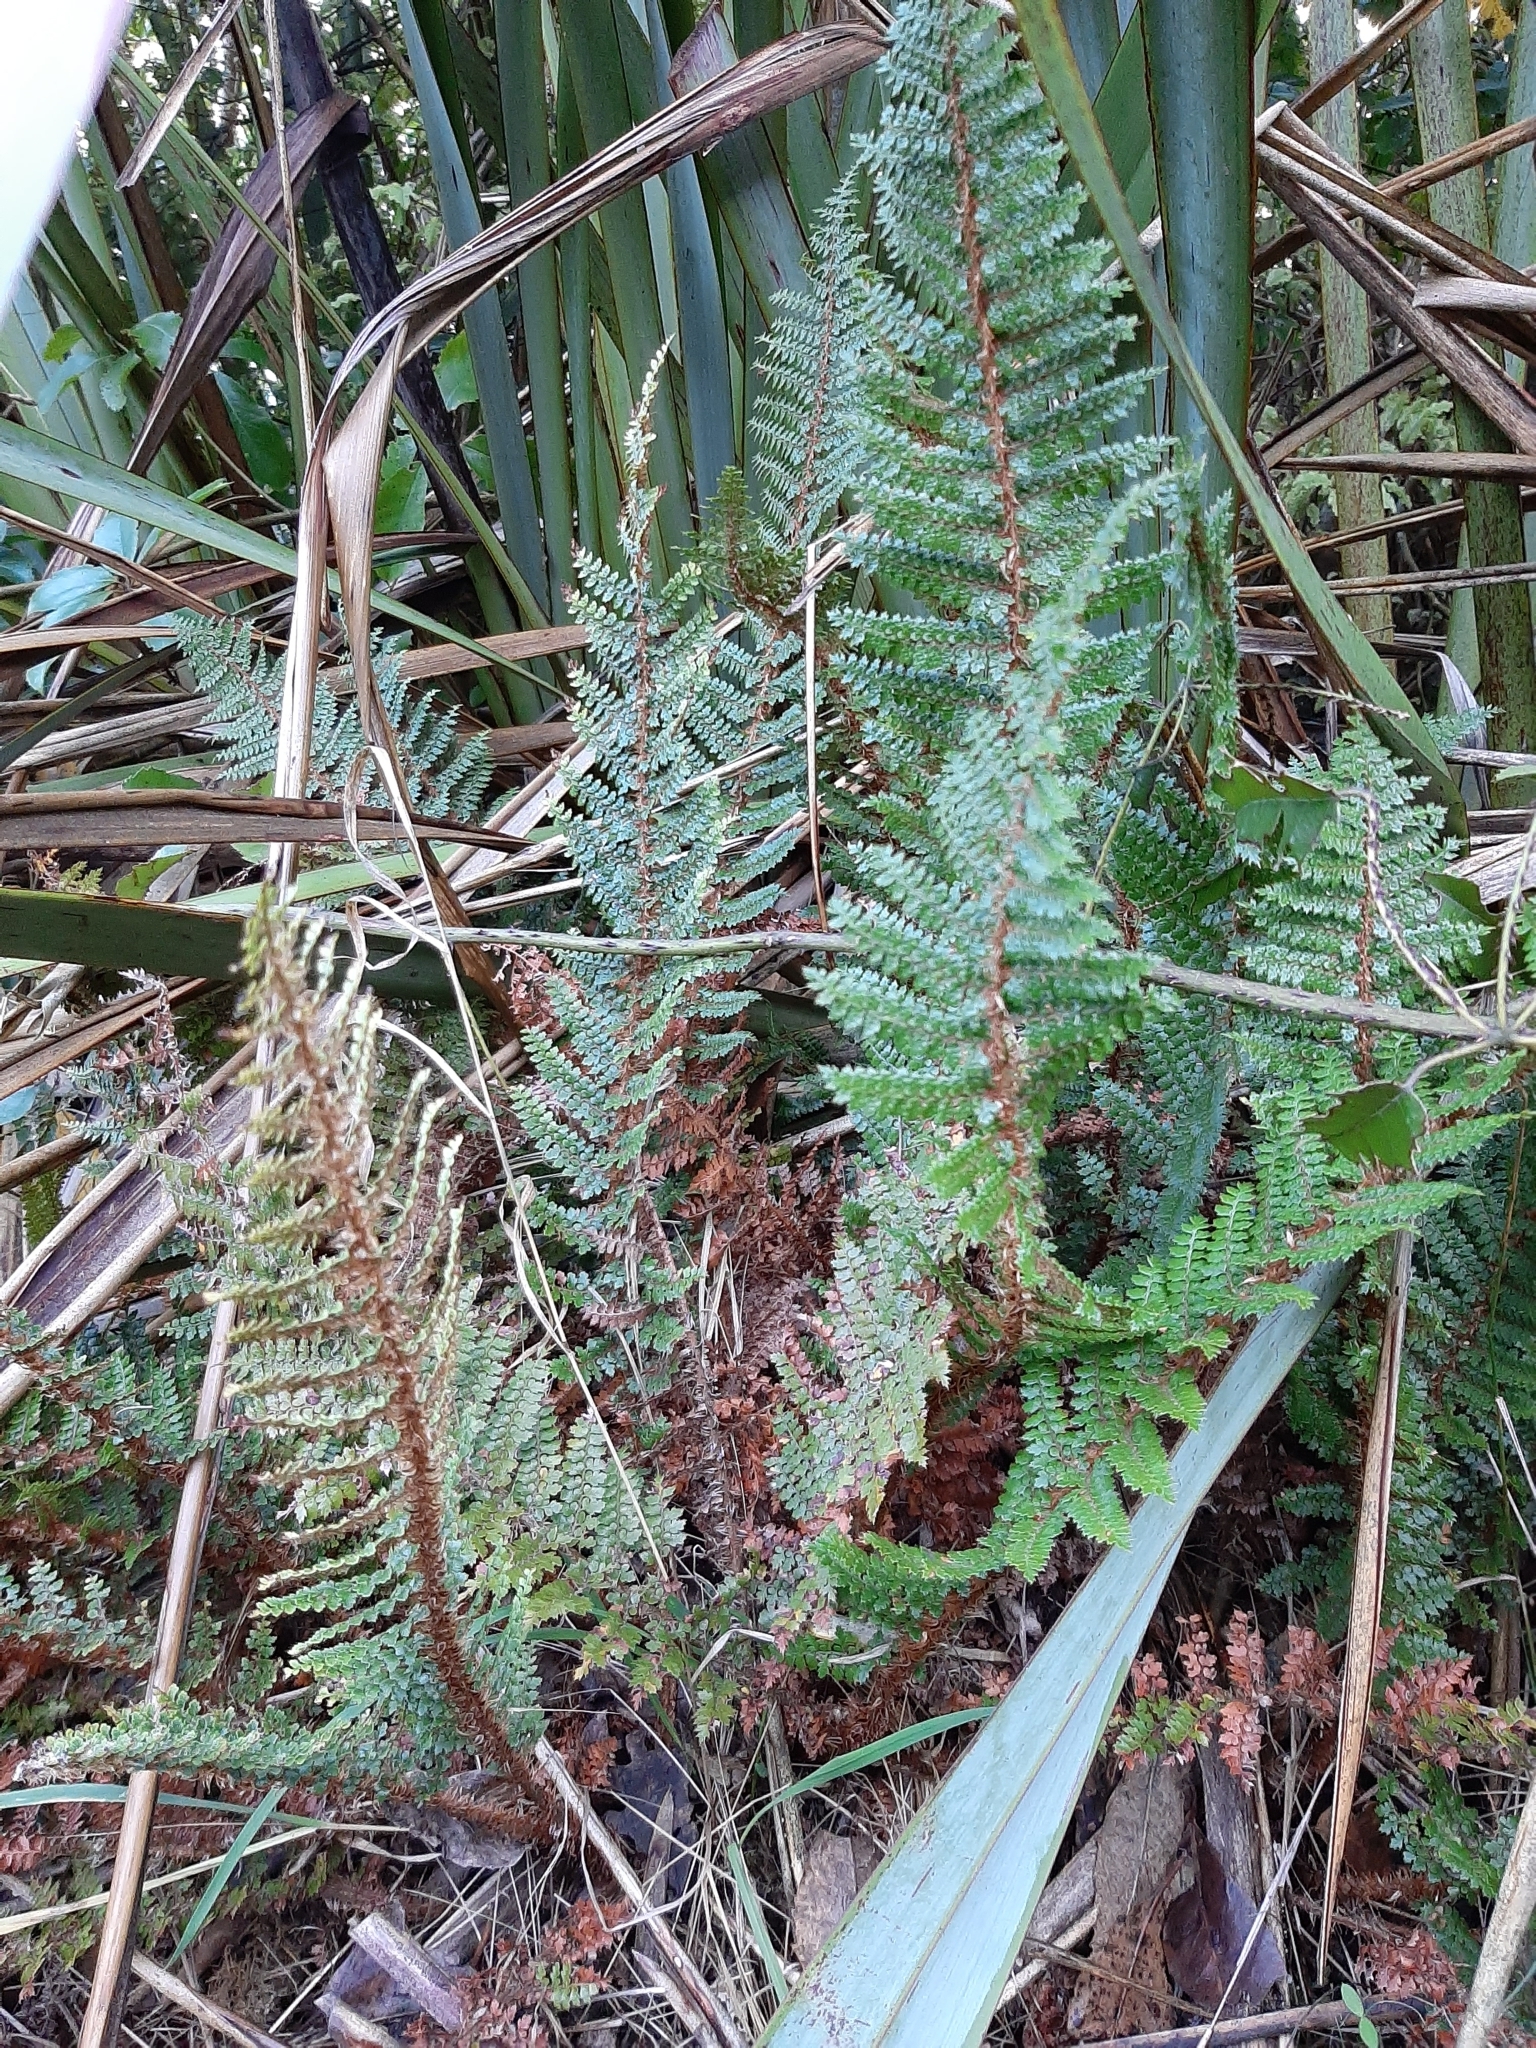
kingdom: Plantae
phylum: Tracheophyta
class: Polypodiopsida
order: Polypodiales
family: Dryopteridaceae
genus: Polystichum
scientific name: Polystichum vestitum
